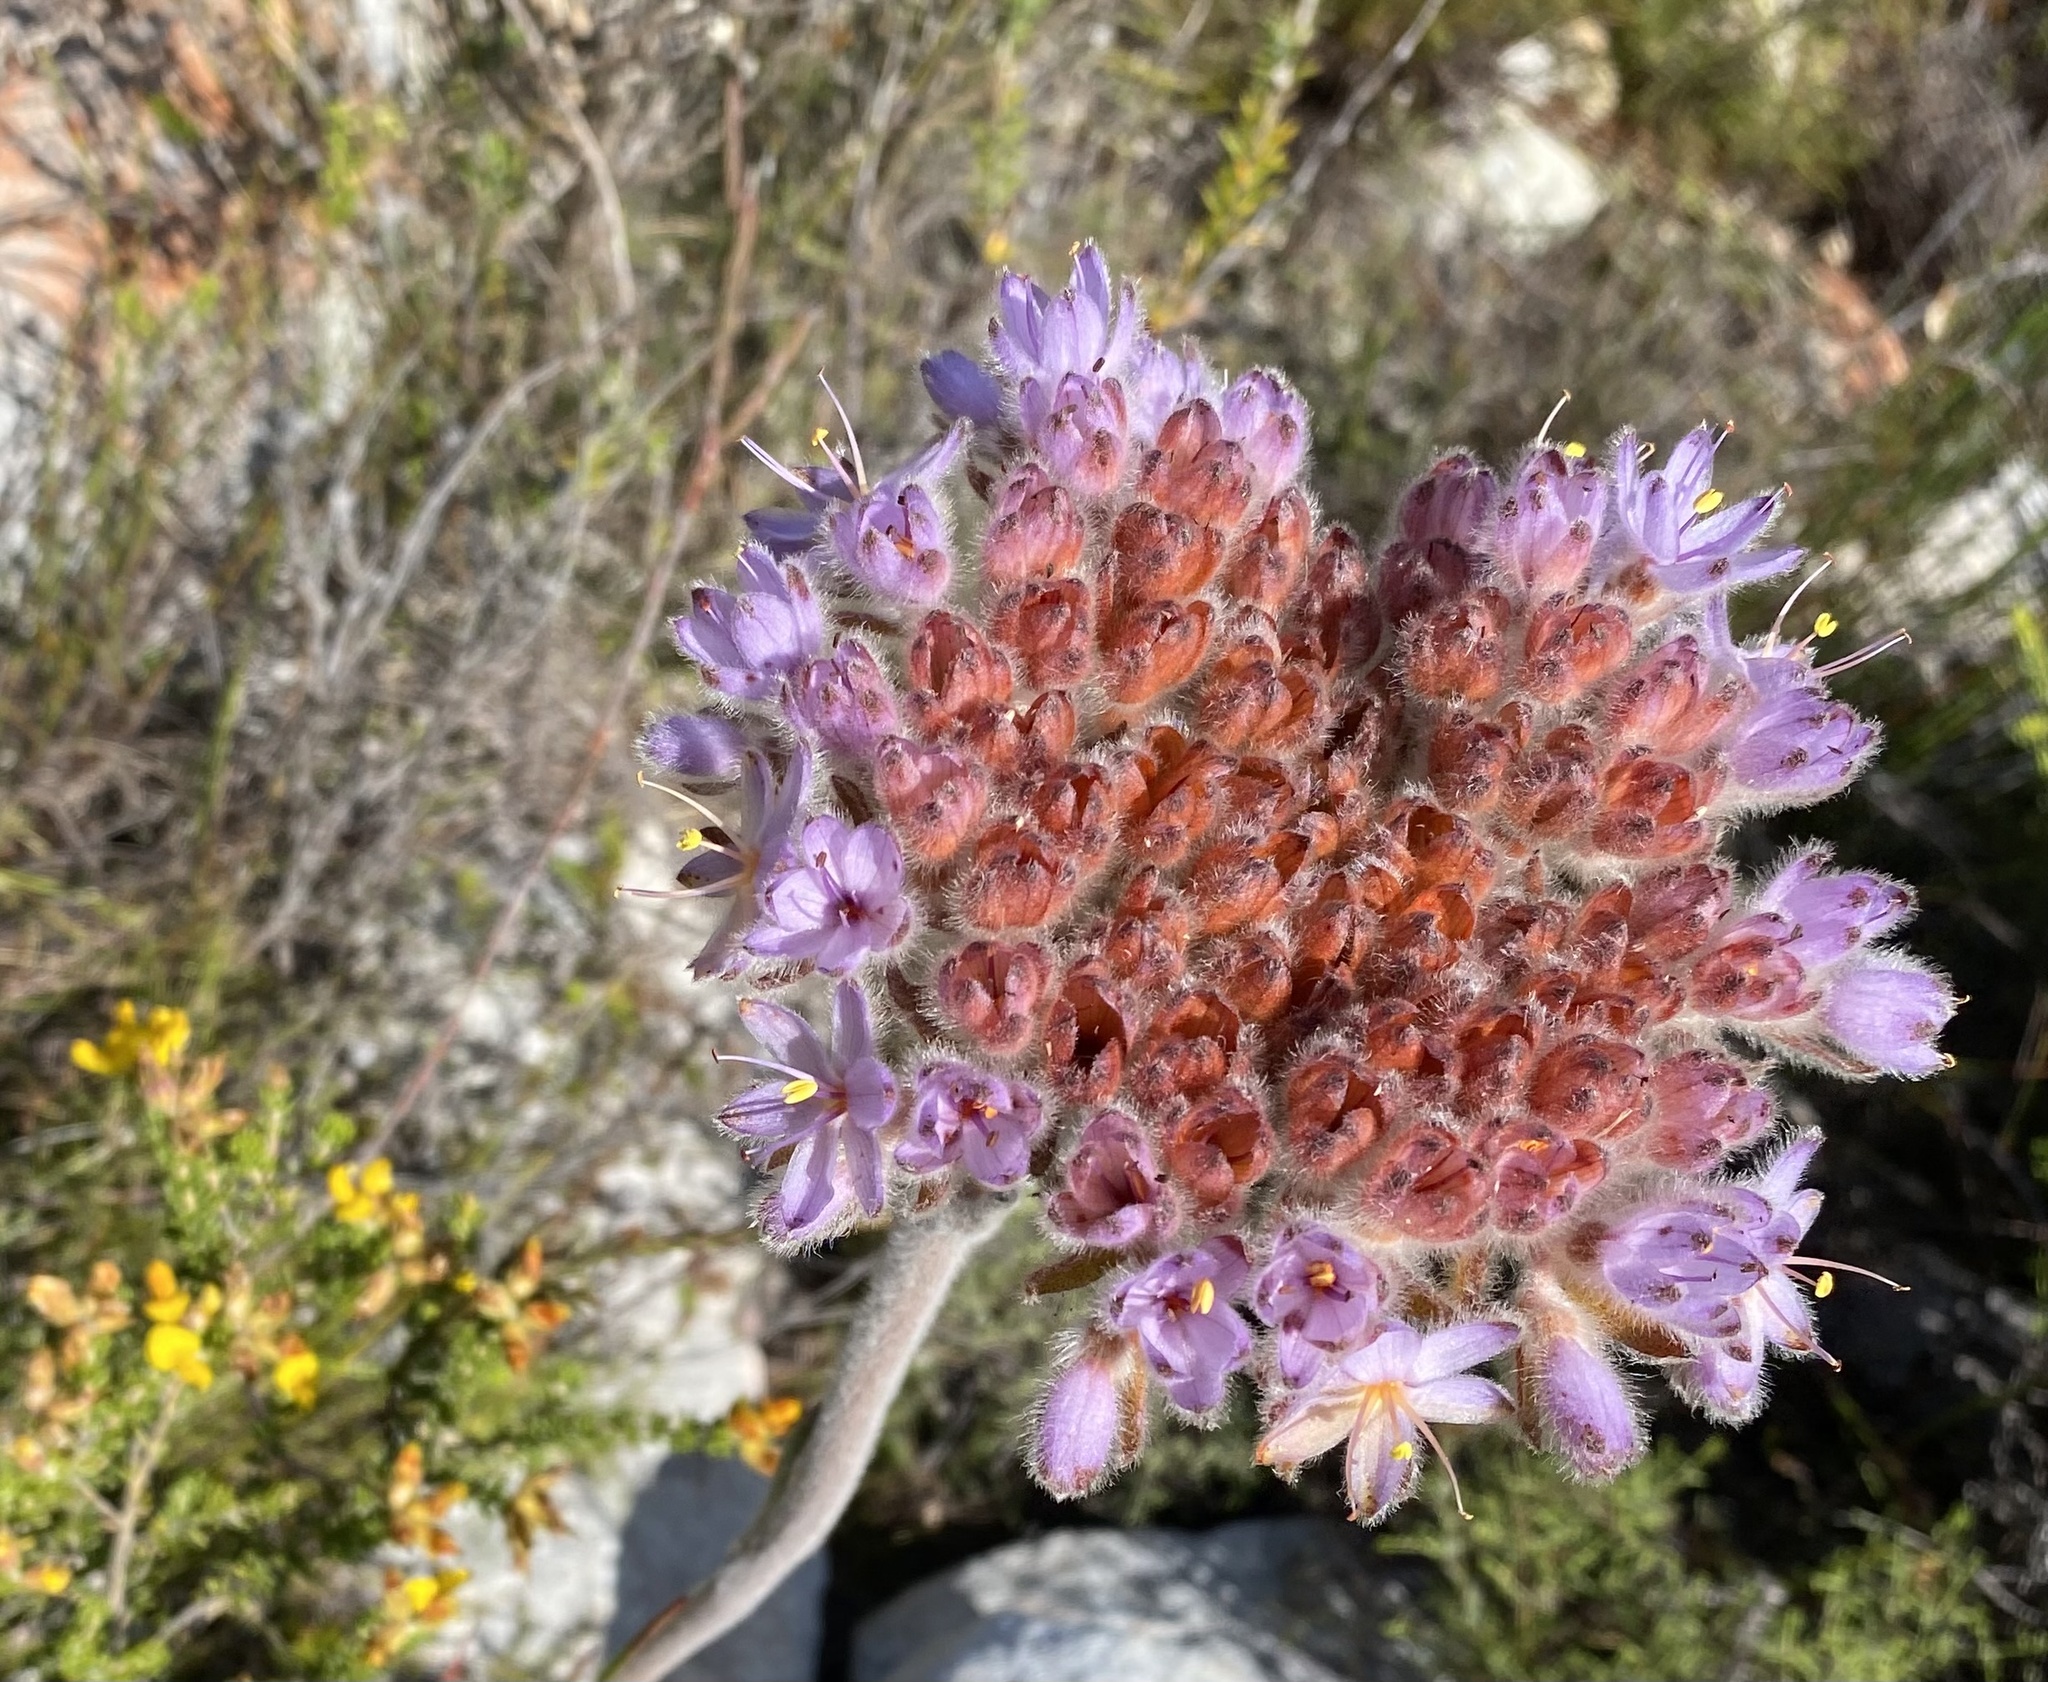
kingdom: Plantae
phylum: Tracheophyta
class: Liliopsida
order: Commelinales
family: Haemodoraceae
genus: Dilatris
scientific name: Dilatris corymbosa
